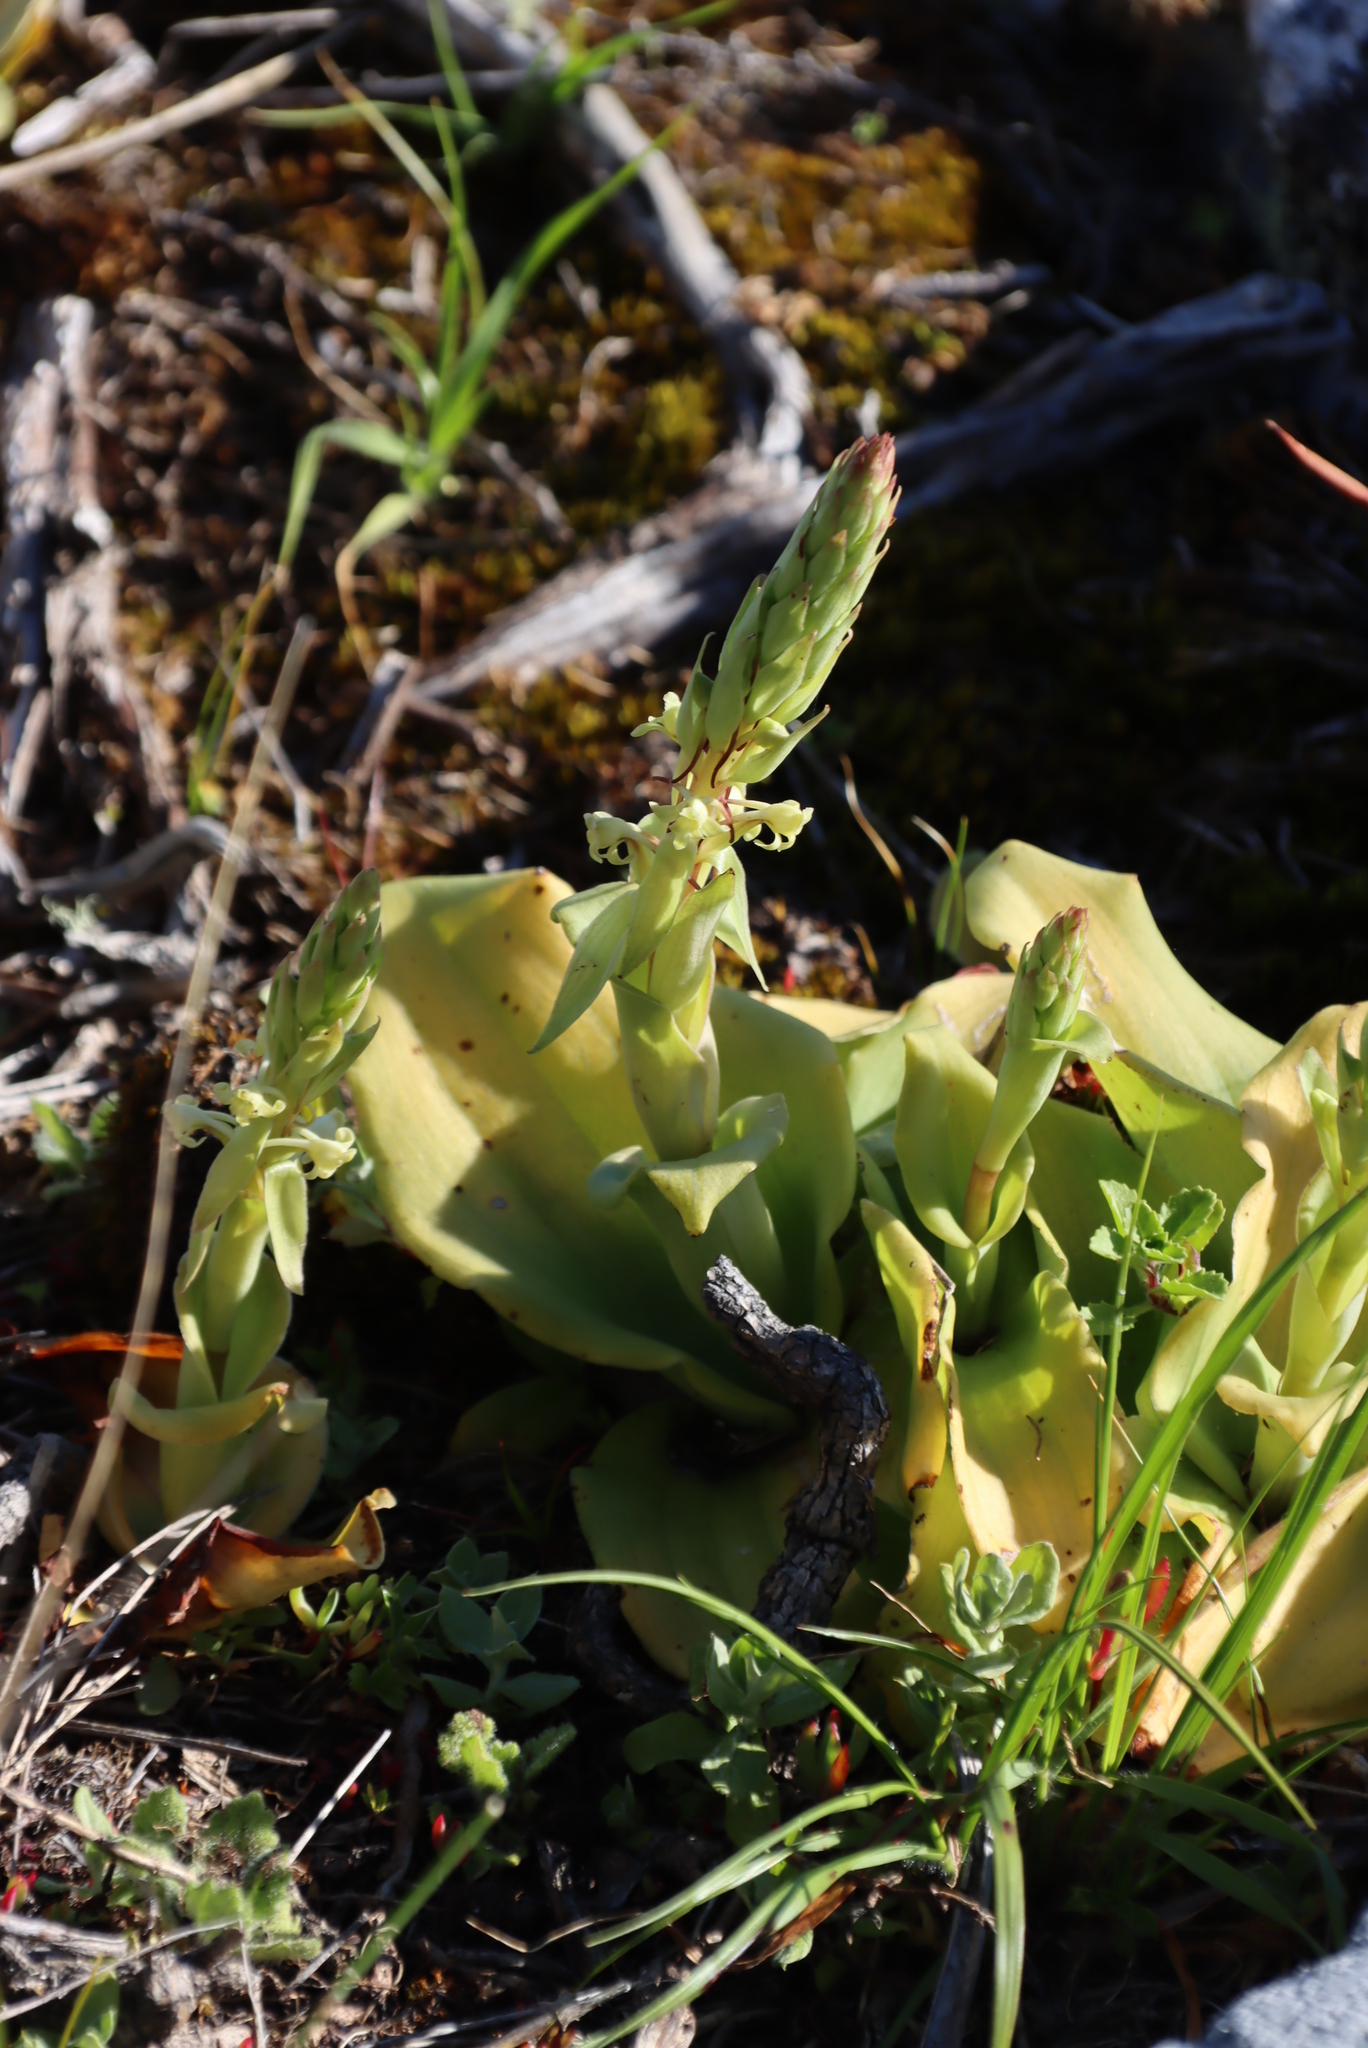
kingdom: Plantae
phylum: Tracheophyta
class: Liliopsida
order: Asparagales
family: Orchidaceae
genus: Satyrium
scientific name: Satyrium humile
